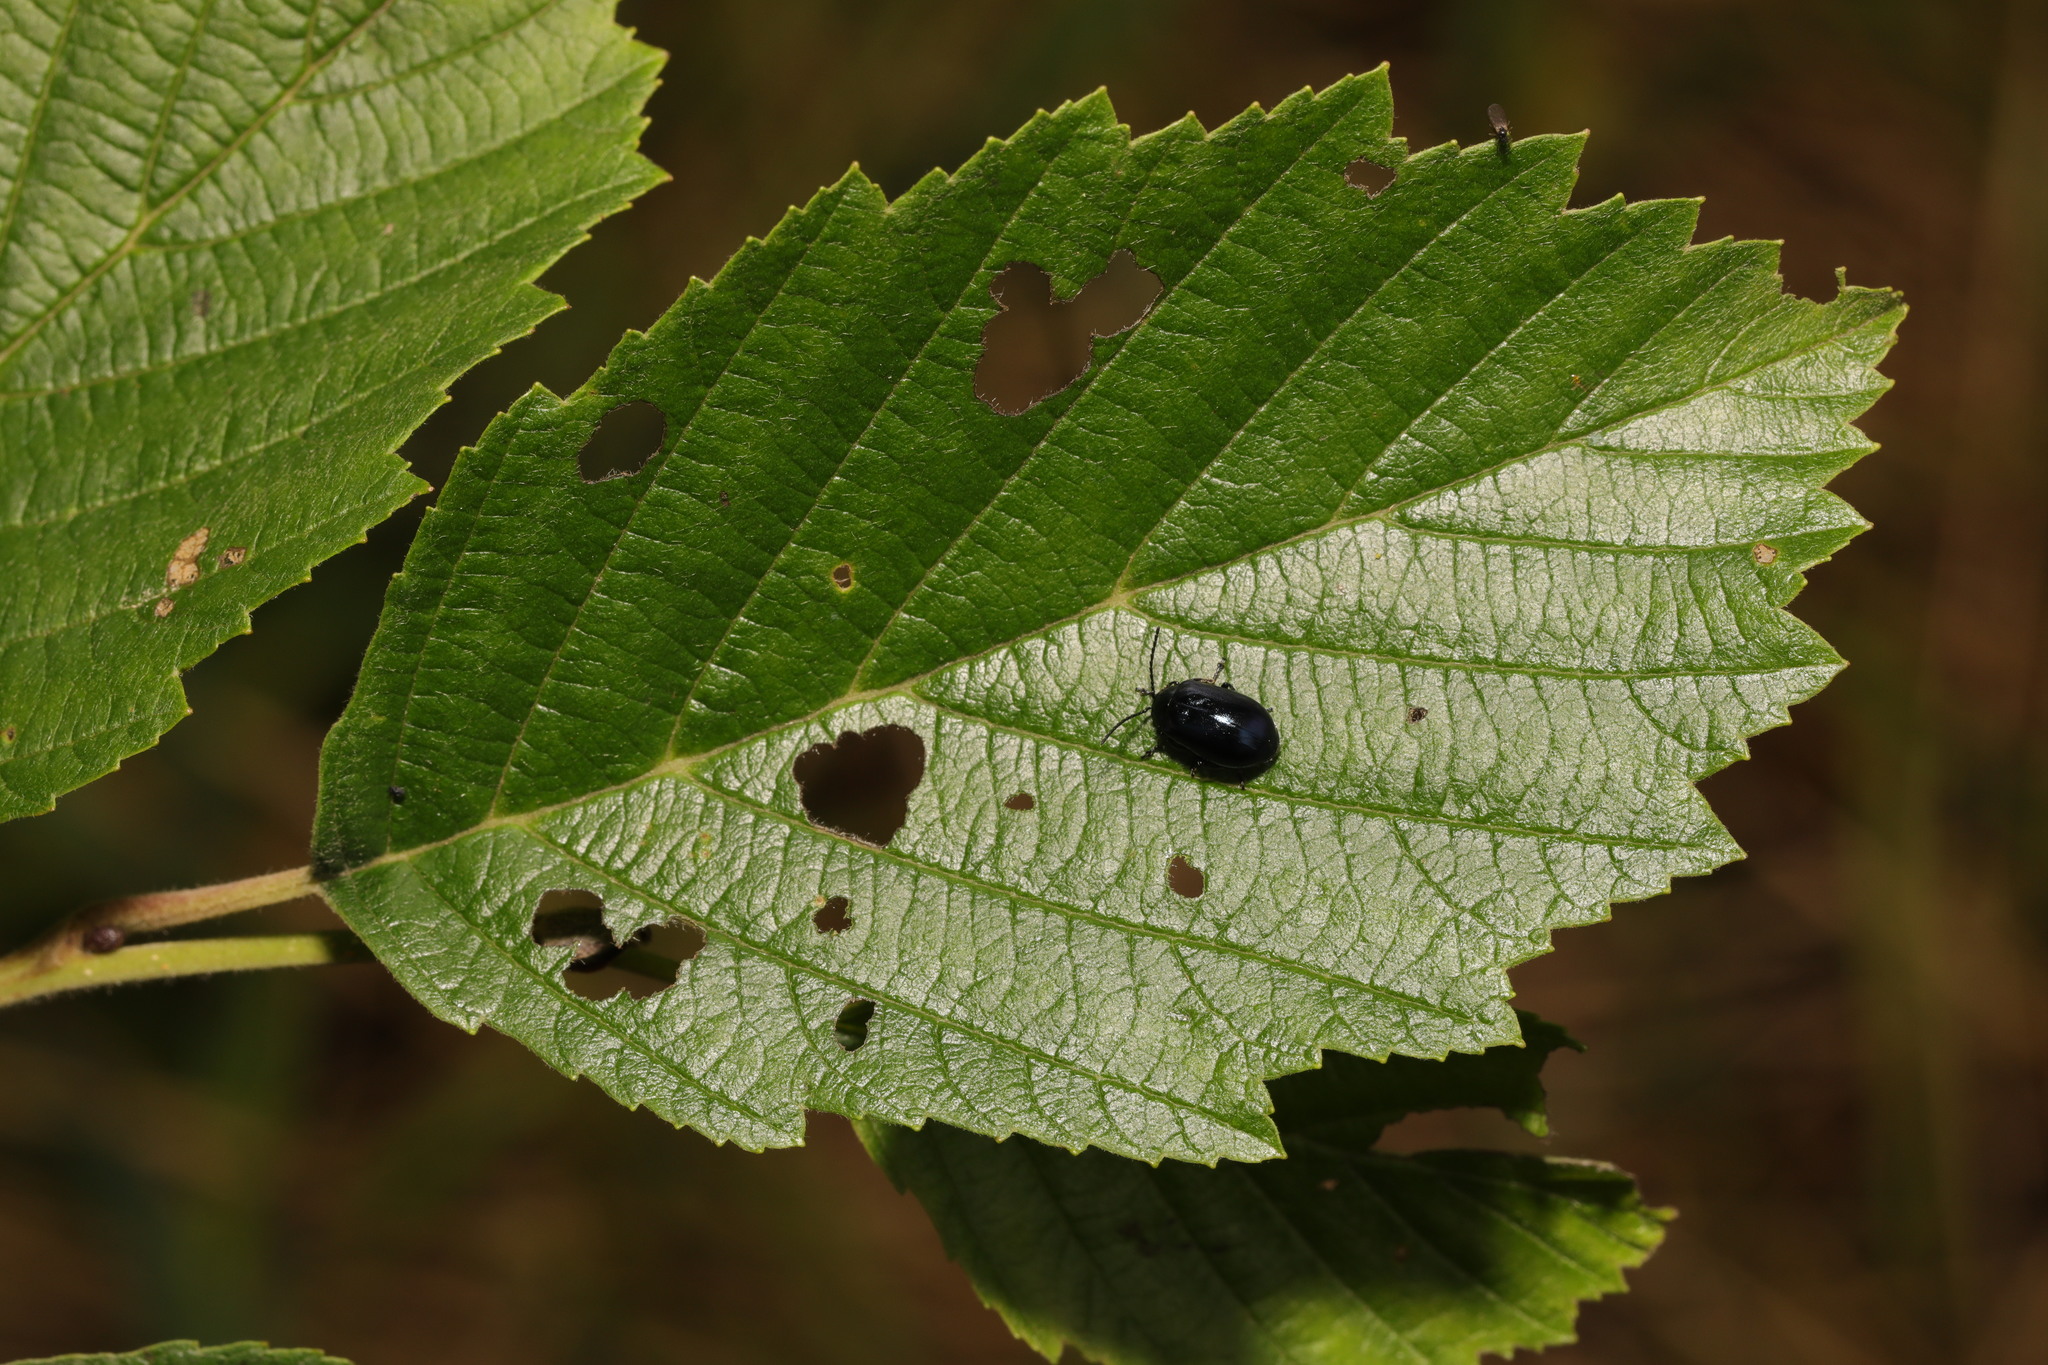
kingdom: Animalia
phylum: Arthropoda
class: Insecta
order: Coleoptera
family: Chrysomelidae
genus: Agelastica
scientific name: Agelastica alni
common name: Alder leaf beetle
